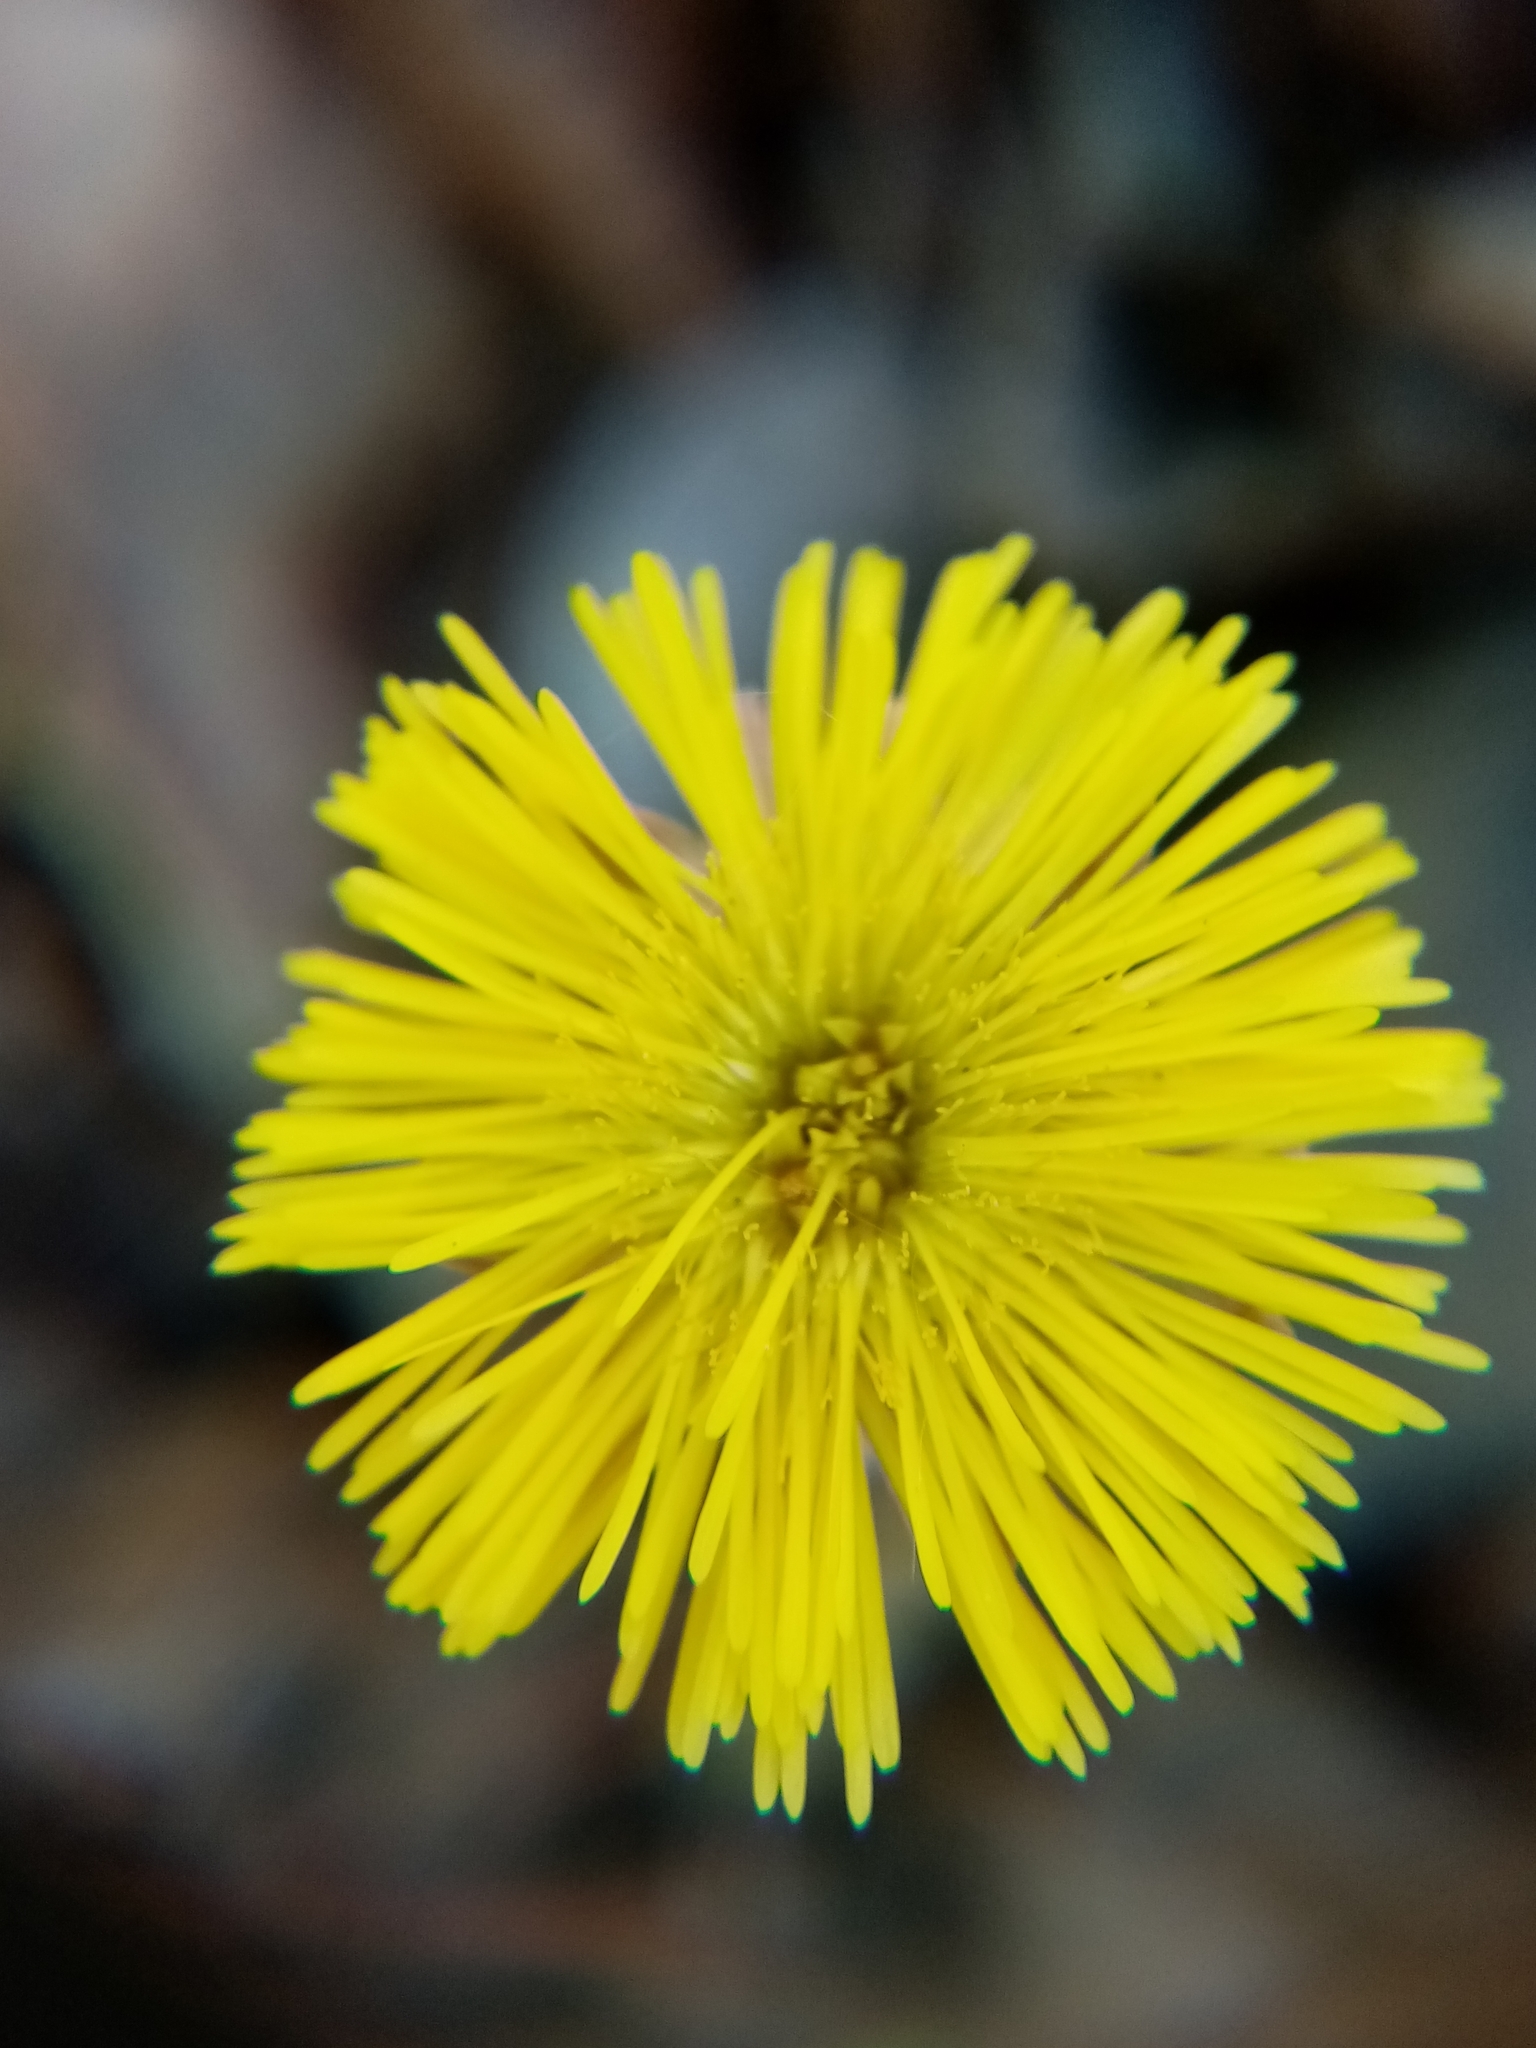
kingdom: Plantae
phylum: Tracheophyta
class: Magnoliopsida
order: Asterales
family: Asteraceae
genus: Tussilago
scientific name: Tussilago farfara
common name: Coltsfoot
